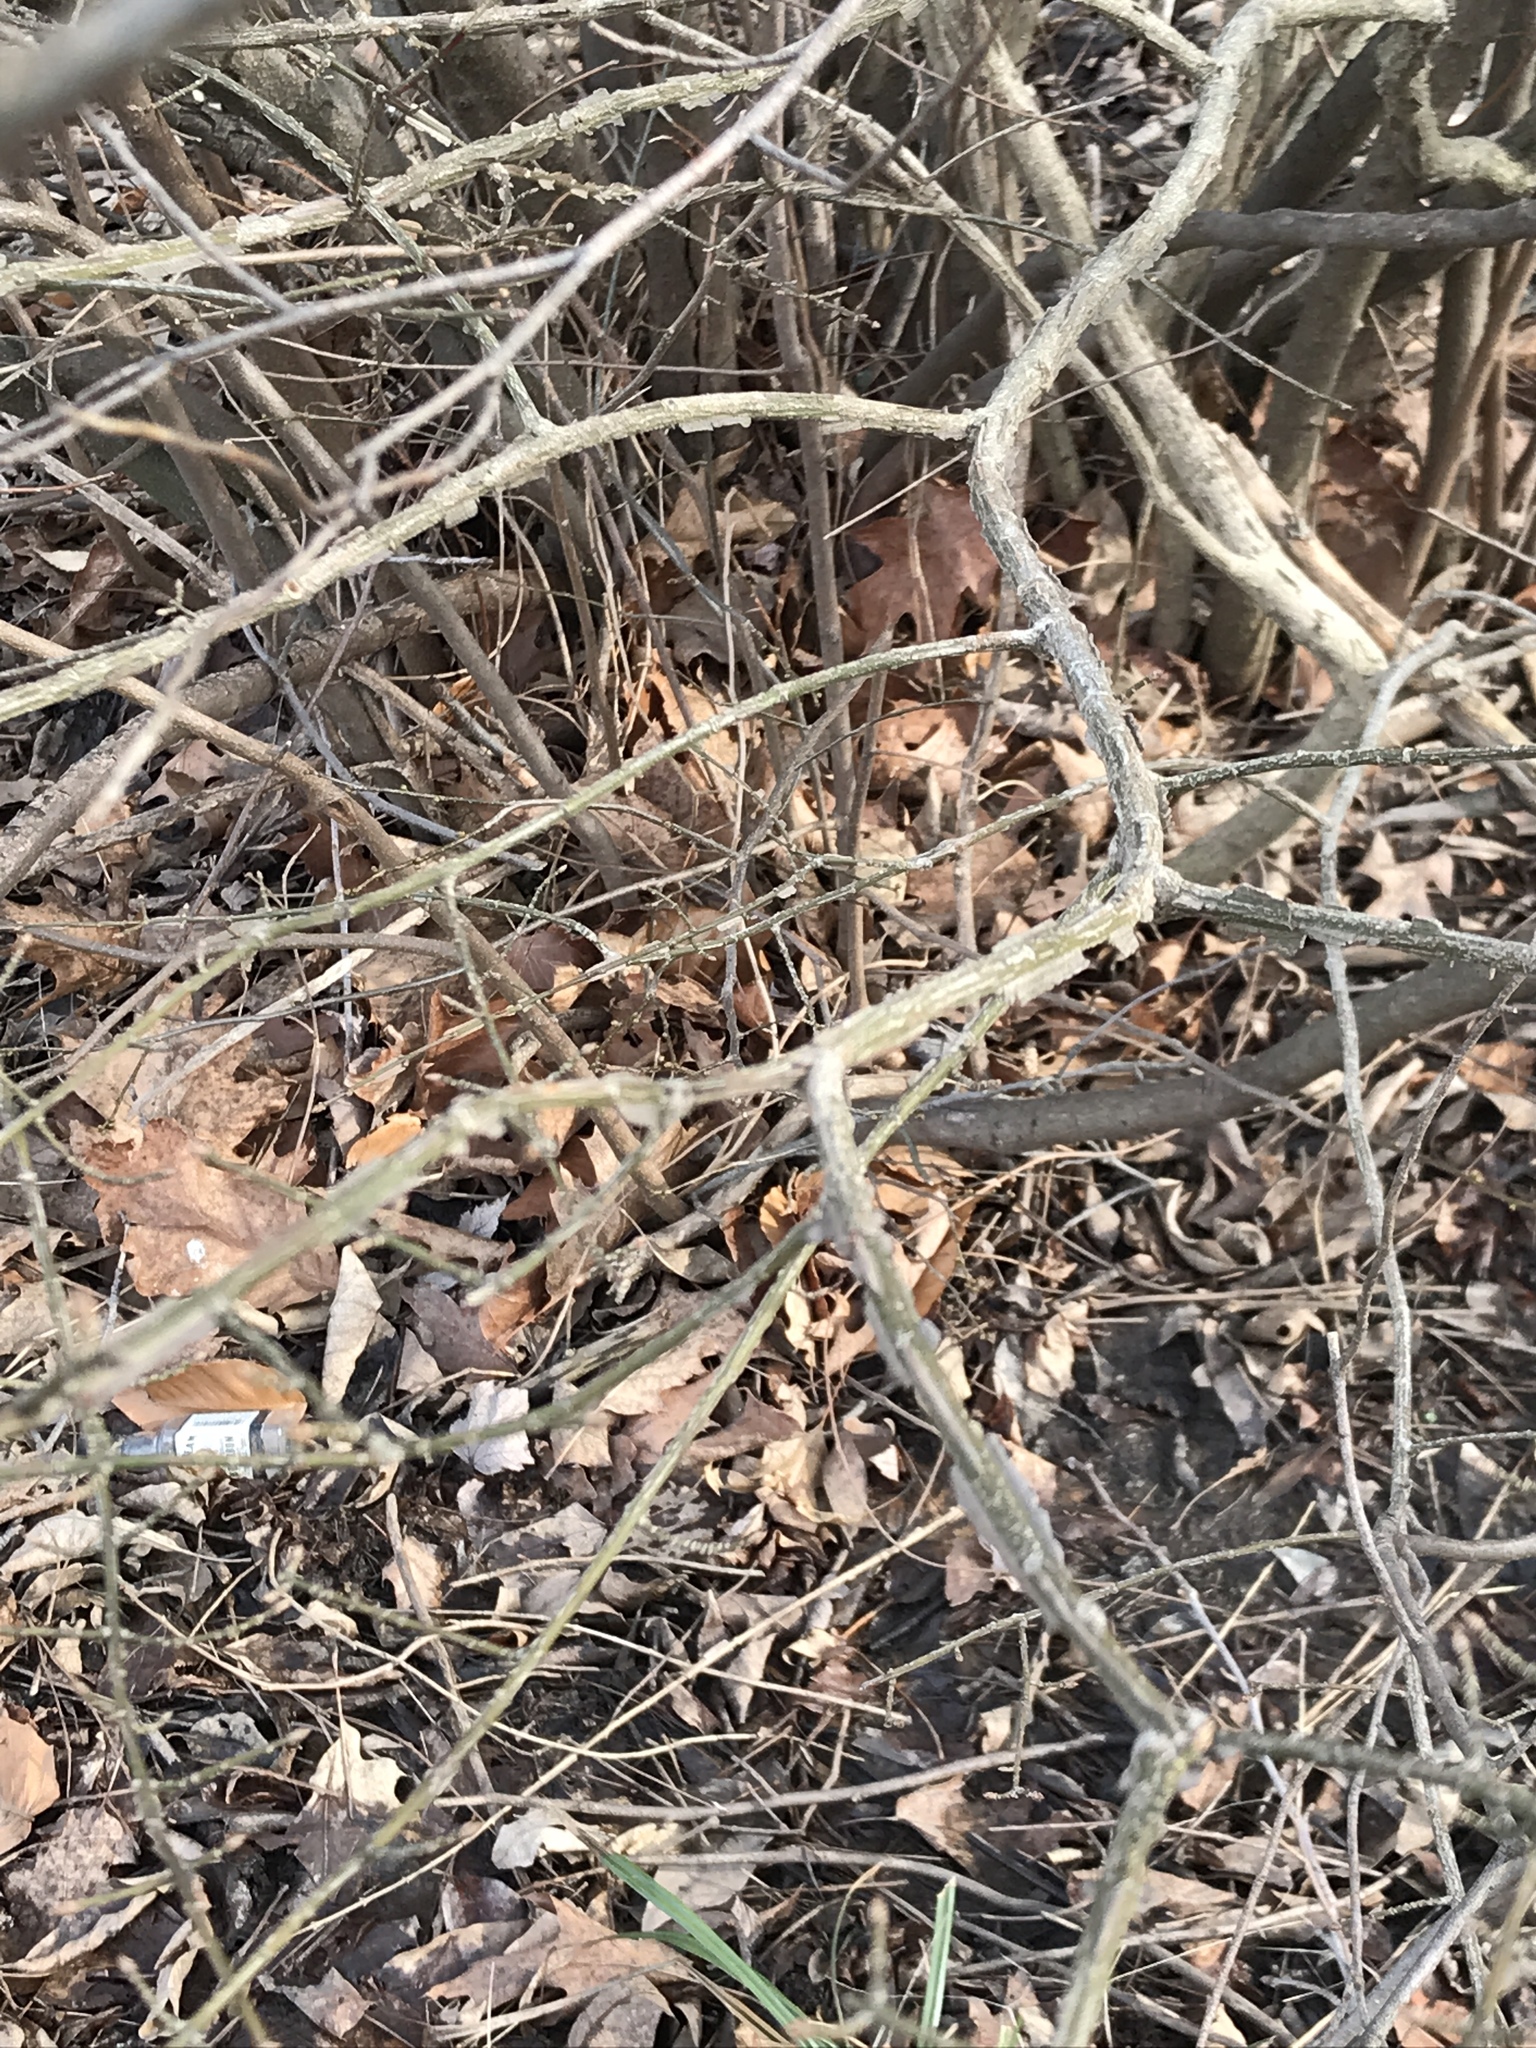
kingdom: Plantae
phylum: Tracheophyta
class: Magnoliopsida
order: Celastrales
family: Celastraceae
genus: Euonymus
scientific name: Euonymus alatus
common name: Winged euonymus
